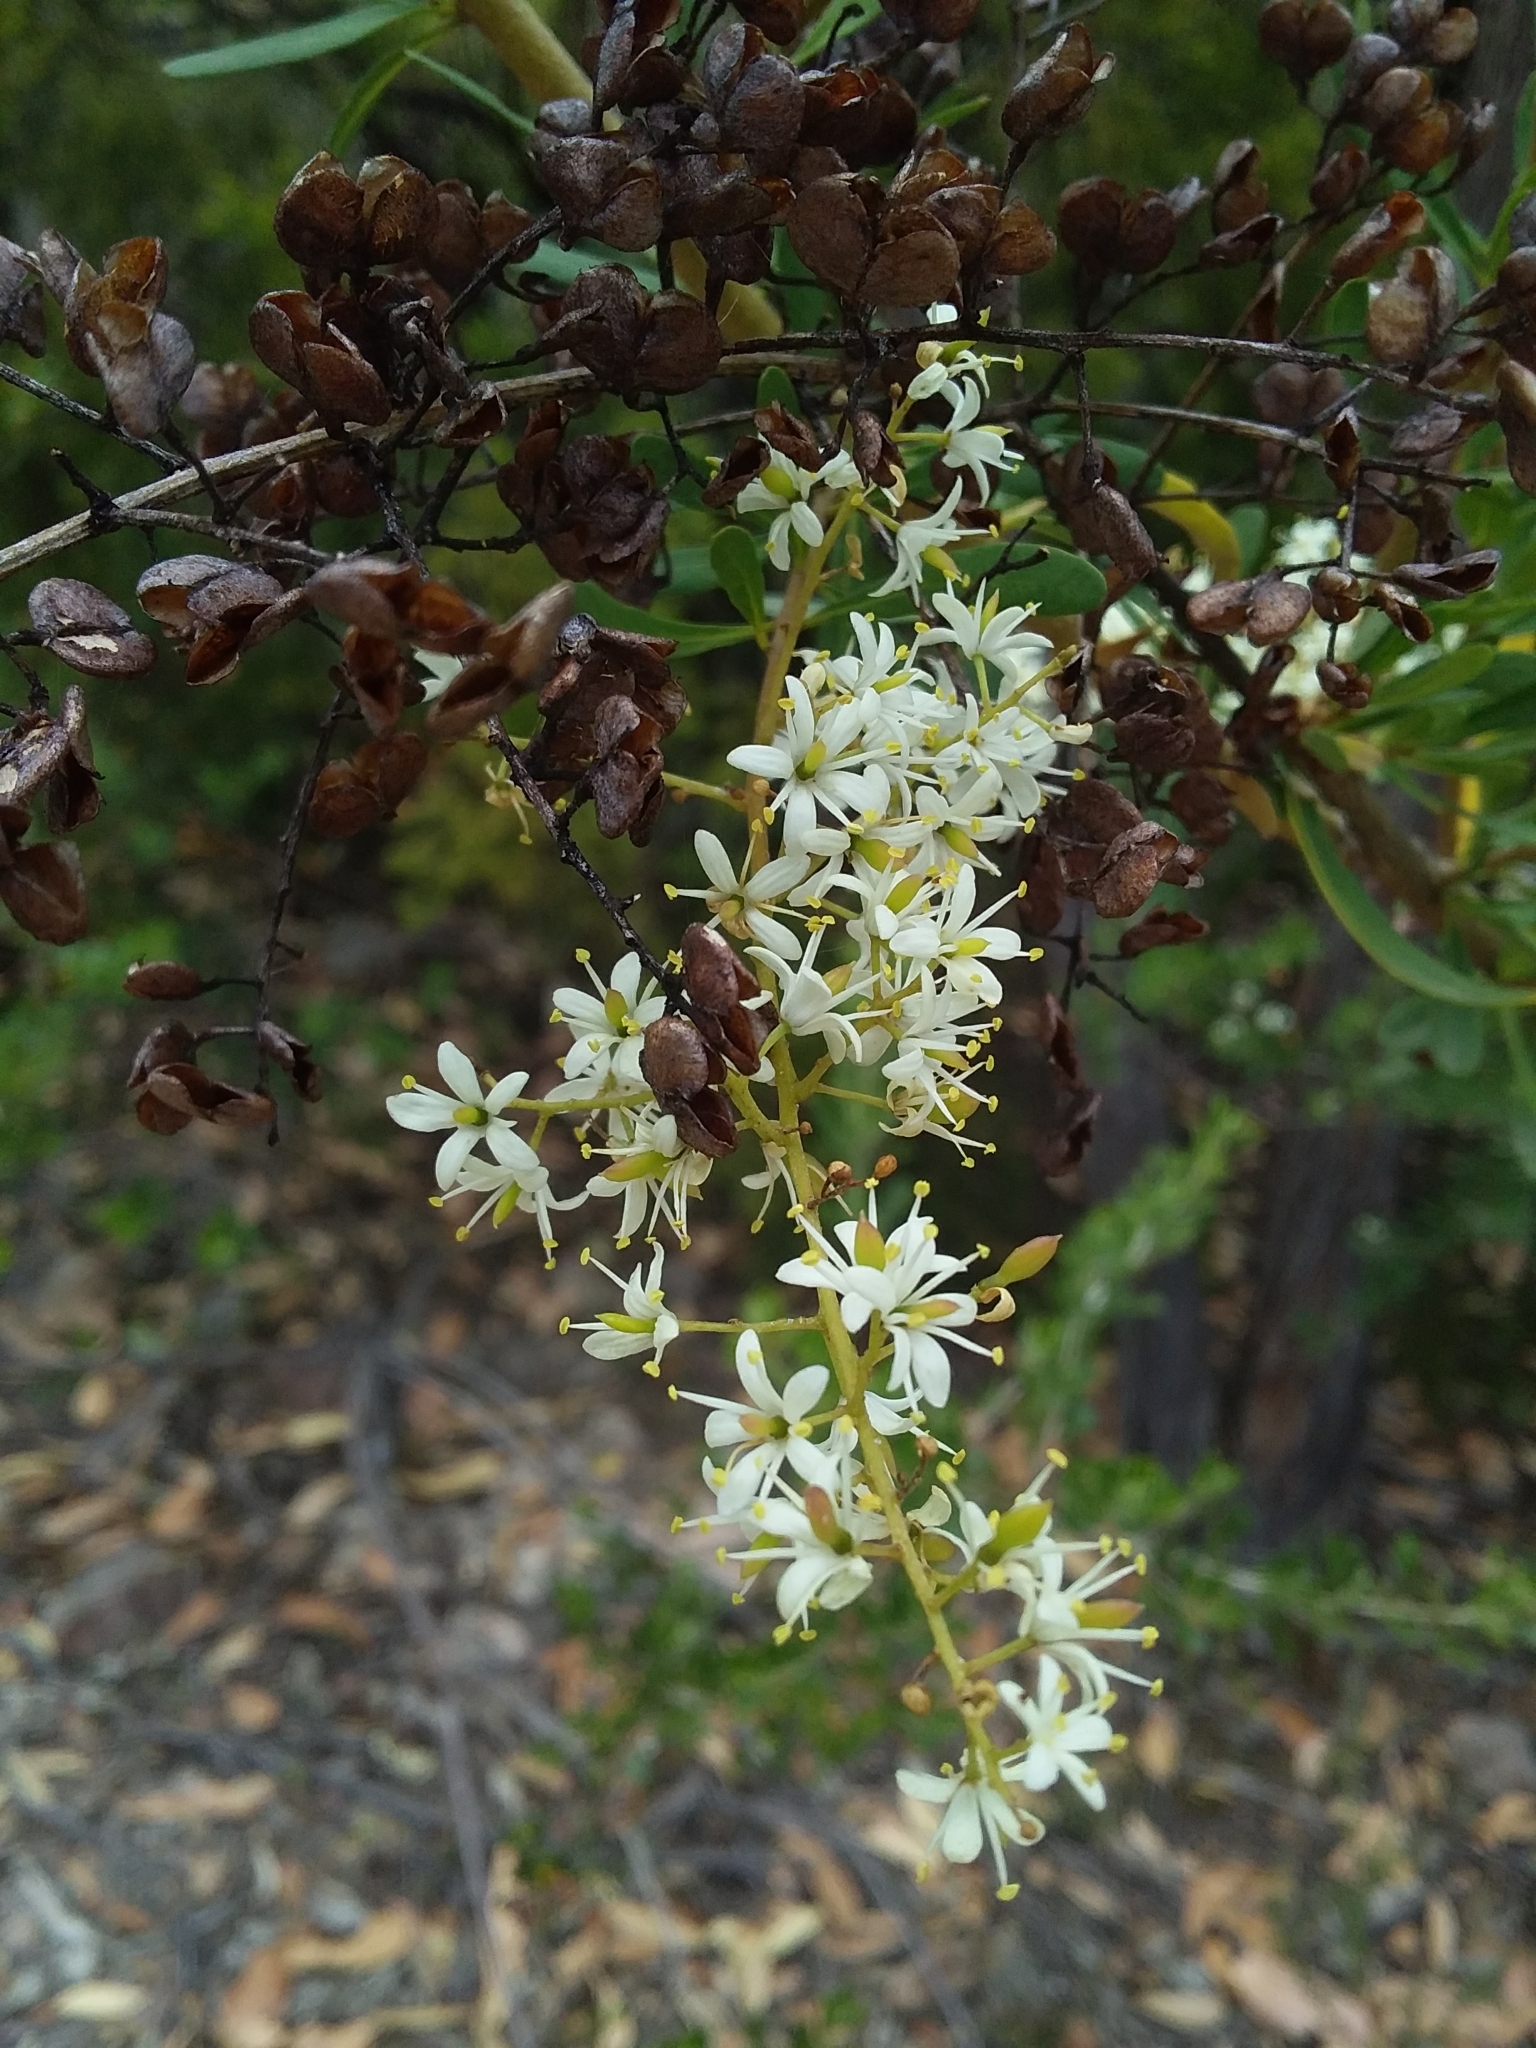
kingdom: Plantae
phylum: Tracheophyta
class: Magnoliopsida
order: Apiales
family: Pittosporaceae
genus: Bursaria
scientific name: Bursaria spinosa
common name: Australian blackthorn
